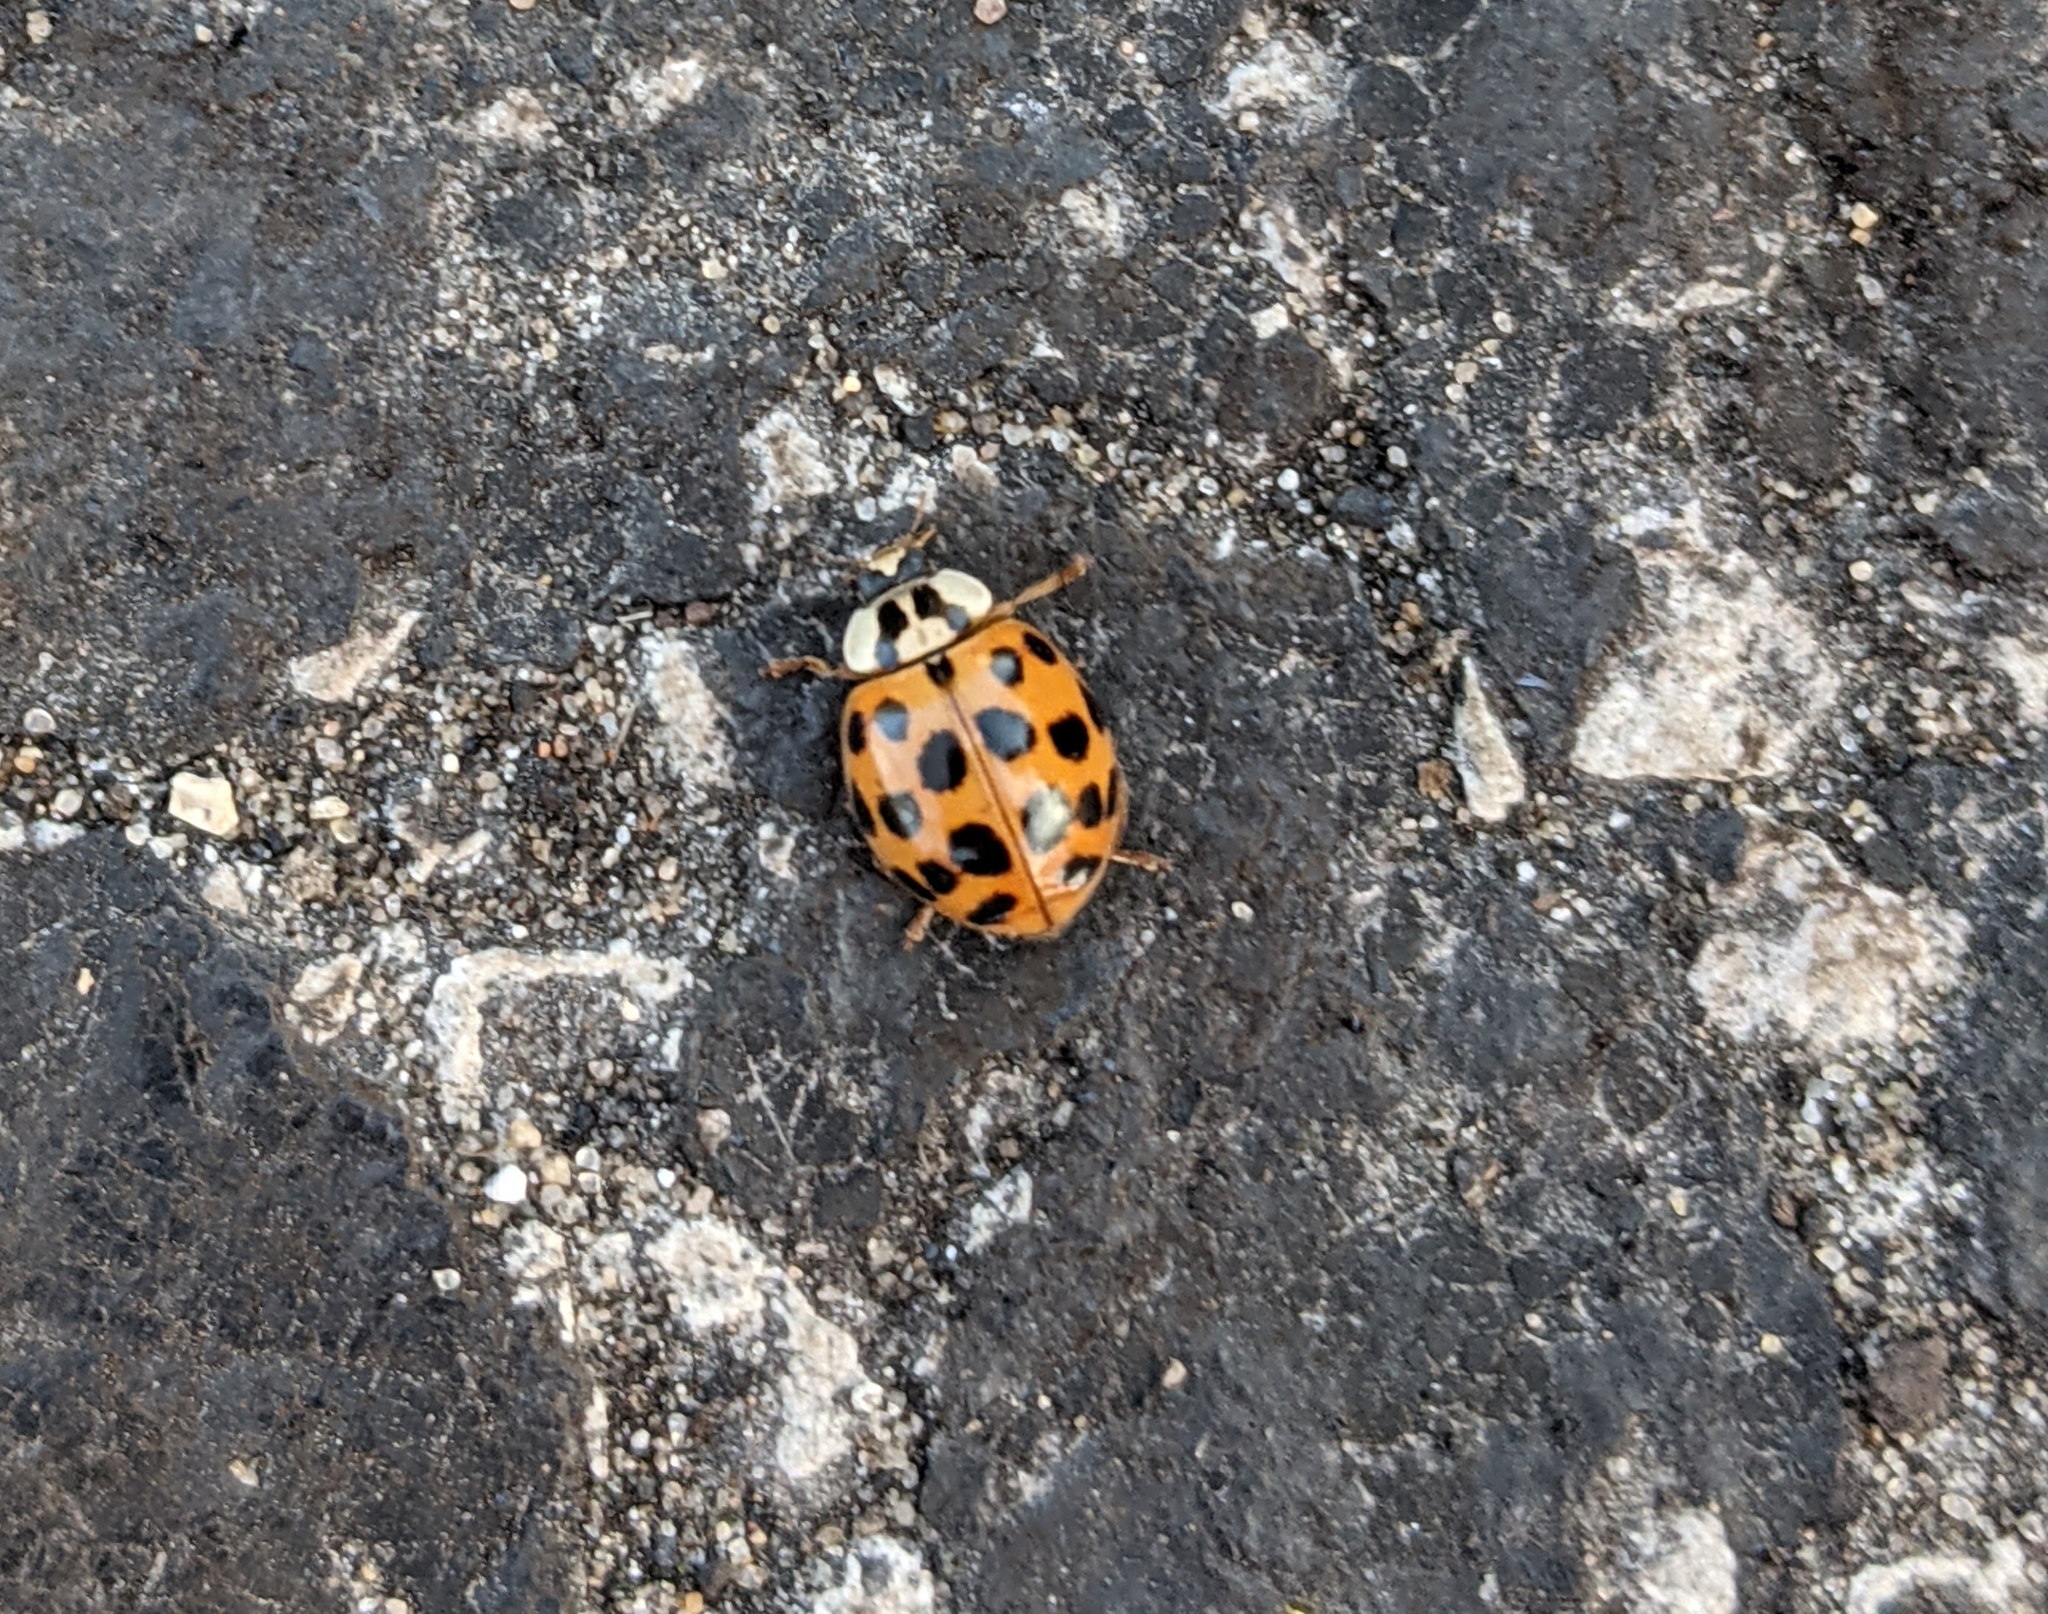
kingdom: Animalia
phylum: Arthropoda
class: Insecta
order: Coleoptera
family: Coccinellidae
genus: Harmonia
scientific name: Harmonia axyridis
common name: Harlequin ladybird
